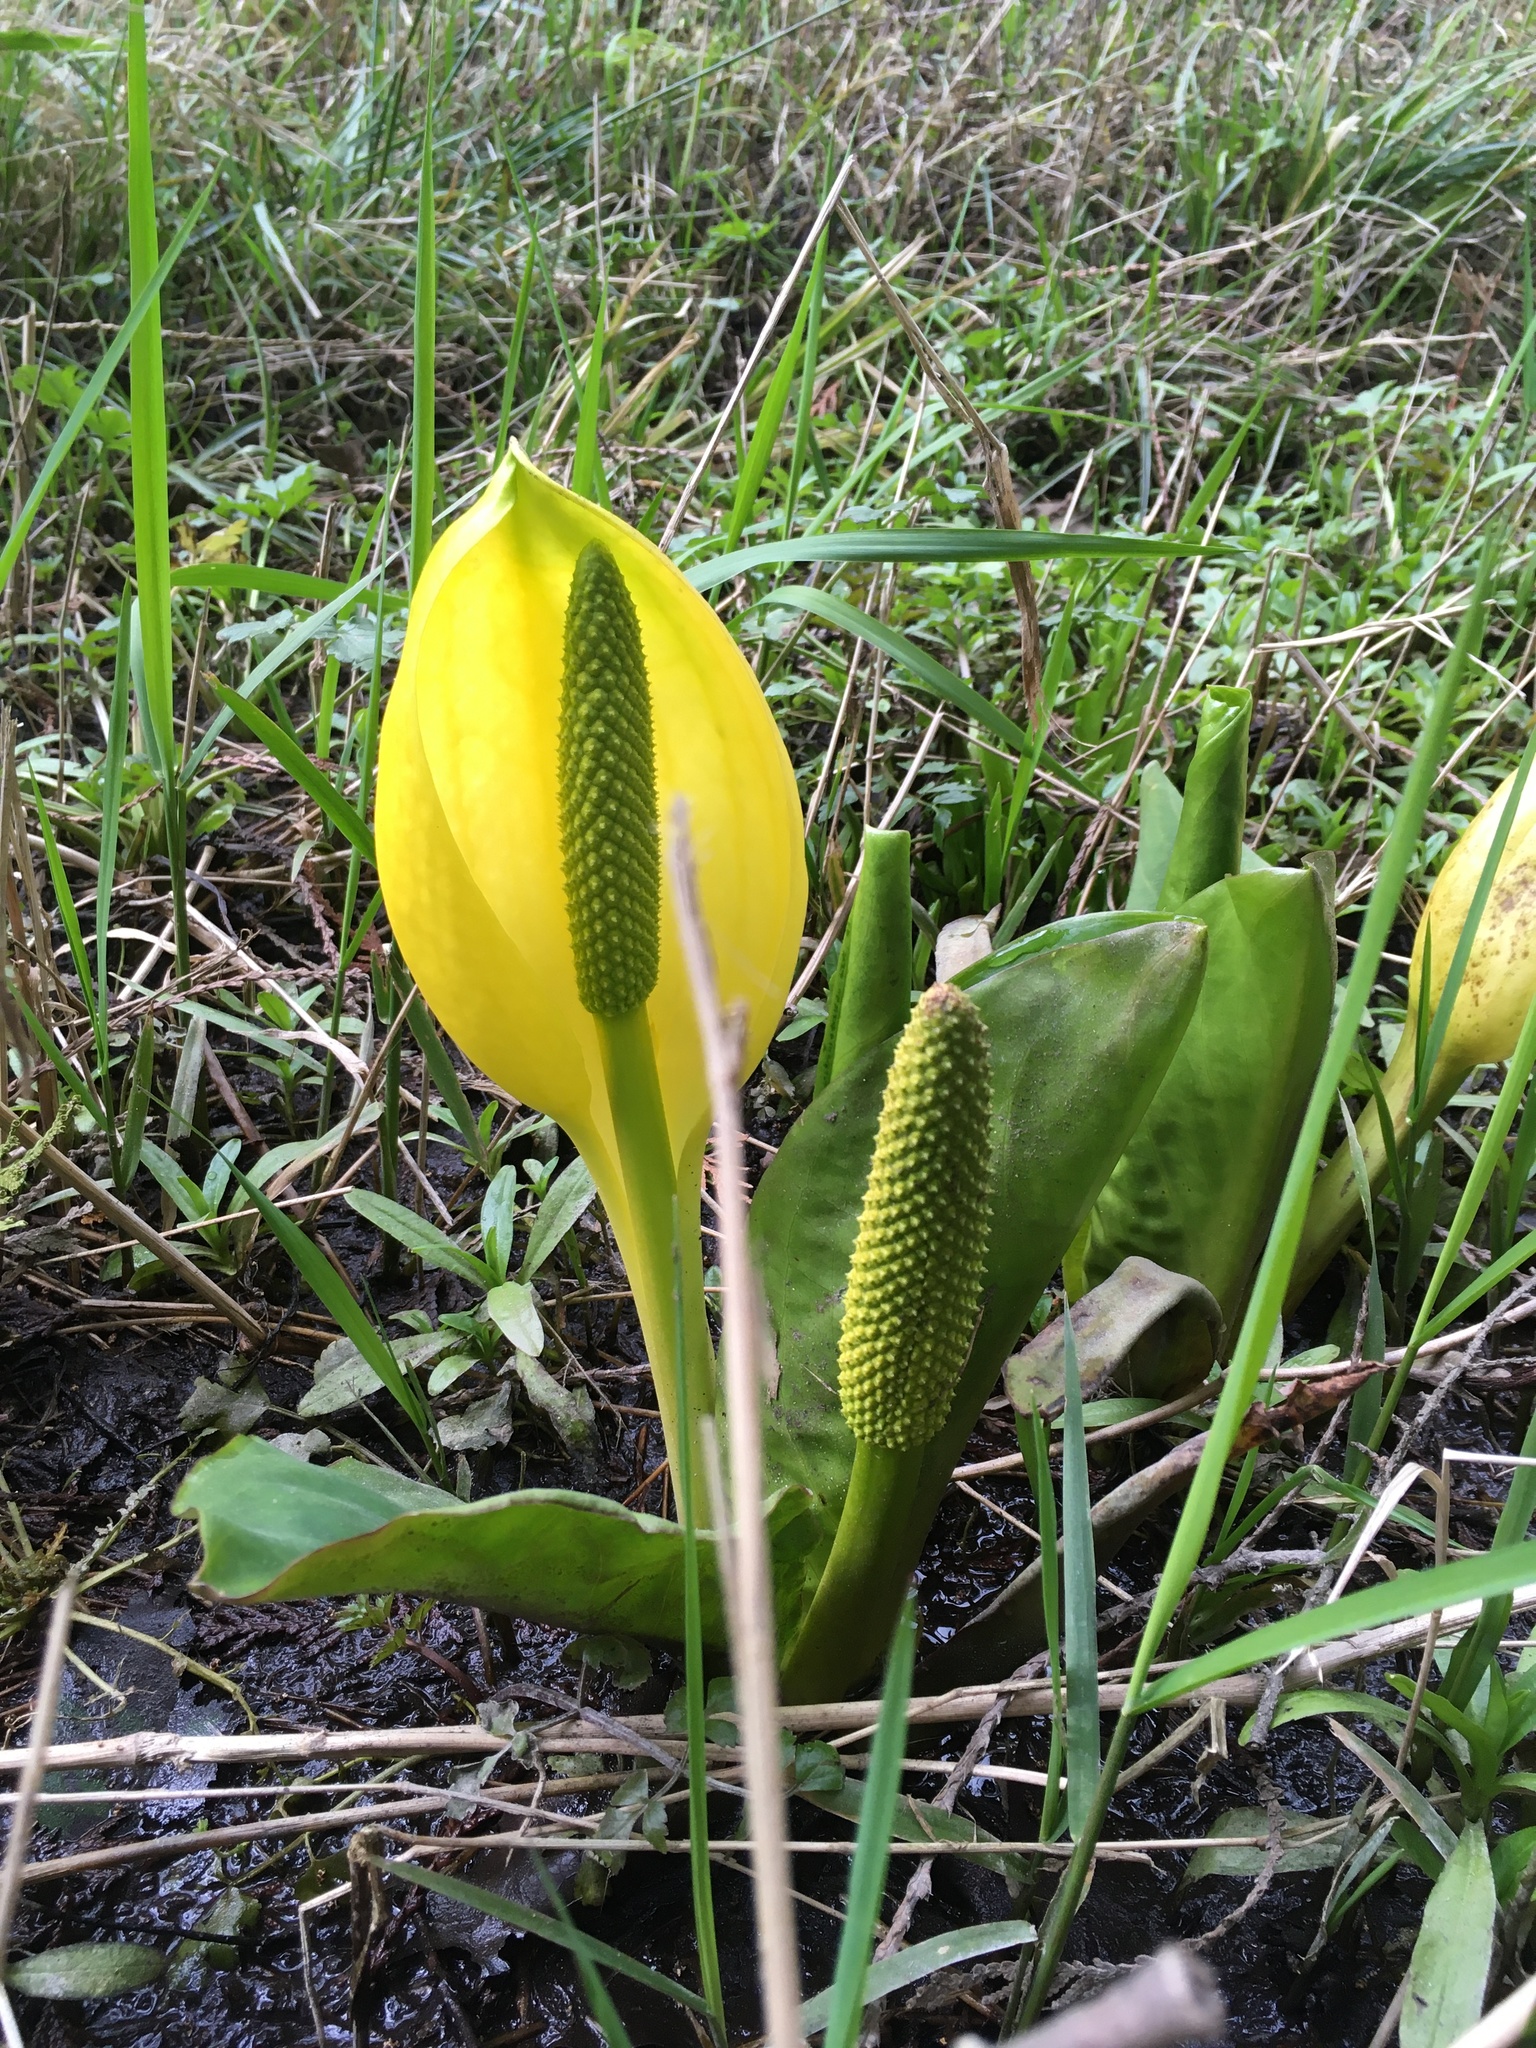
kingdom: Plantae
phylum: Tracheophyta
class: Liliopsida
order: Alismatales
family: Araceae
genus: Lysichiton
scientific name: Lysichiton americanus
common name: American skunk cabbage
